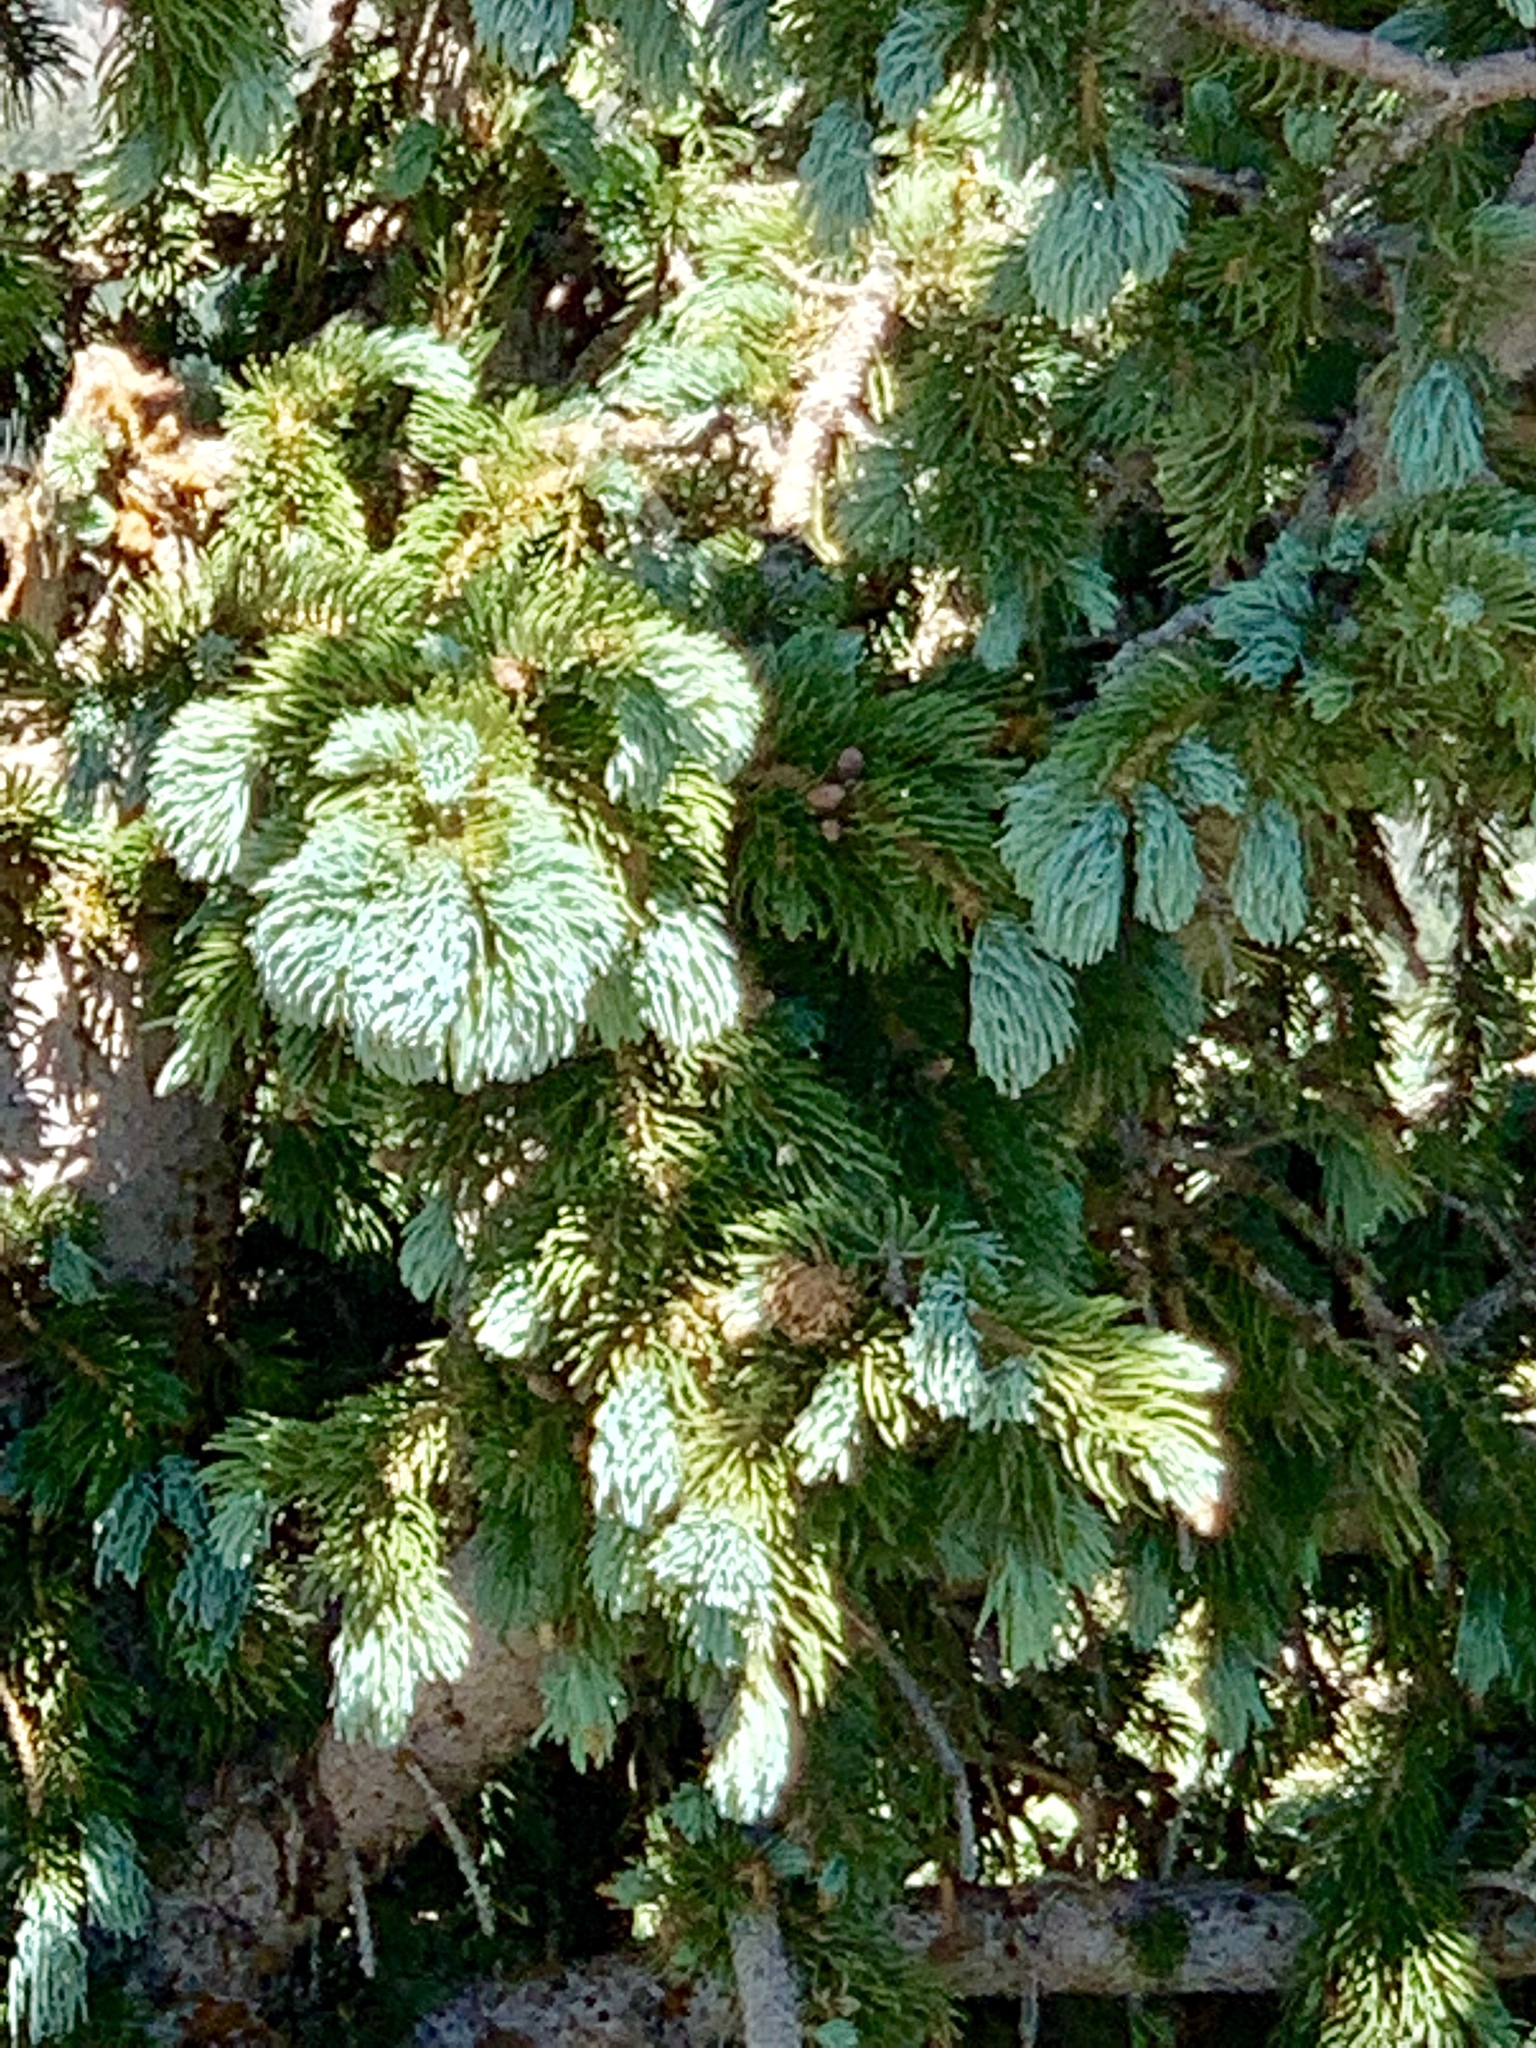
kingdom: Plantae
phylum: Tracheophyta
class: Pinopsida
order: Pinales
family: Pinaceae
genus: Picea
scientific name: Picea engelmannii
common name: Engelmann spruce
